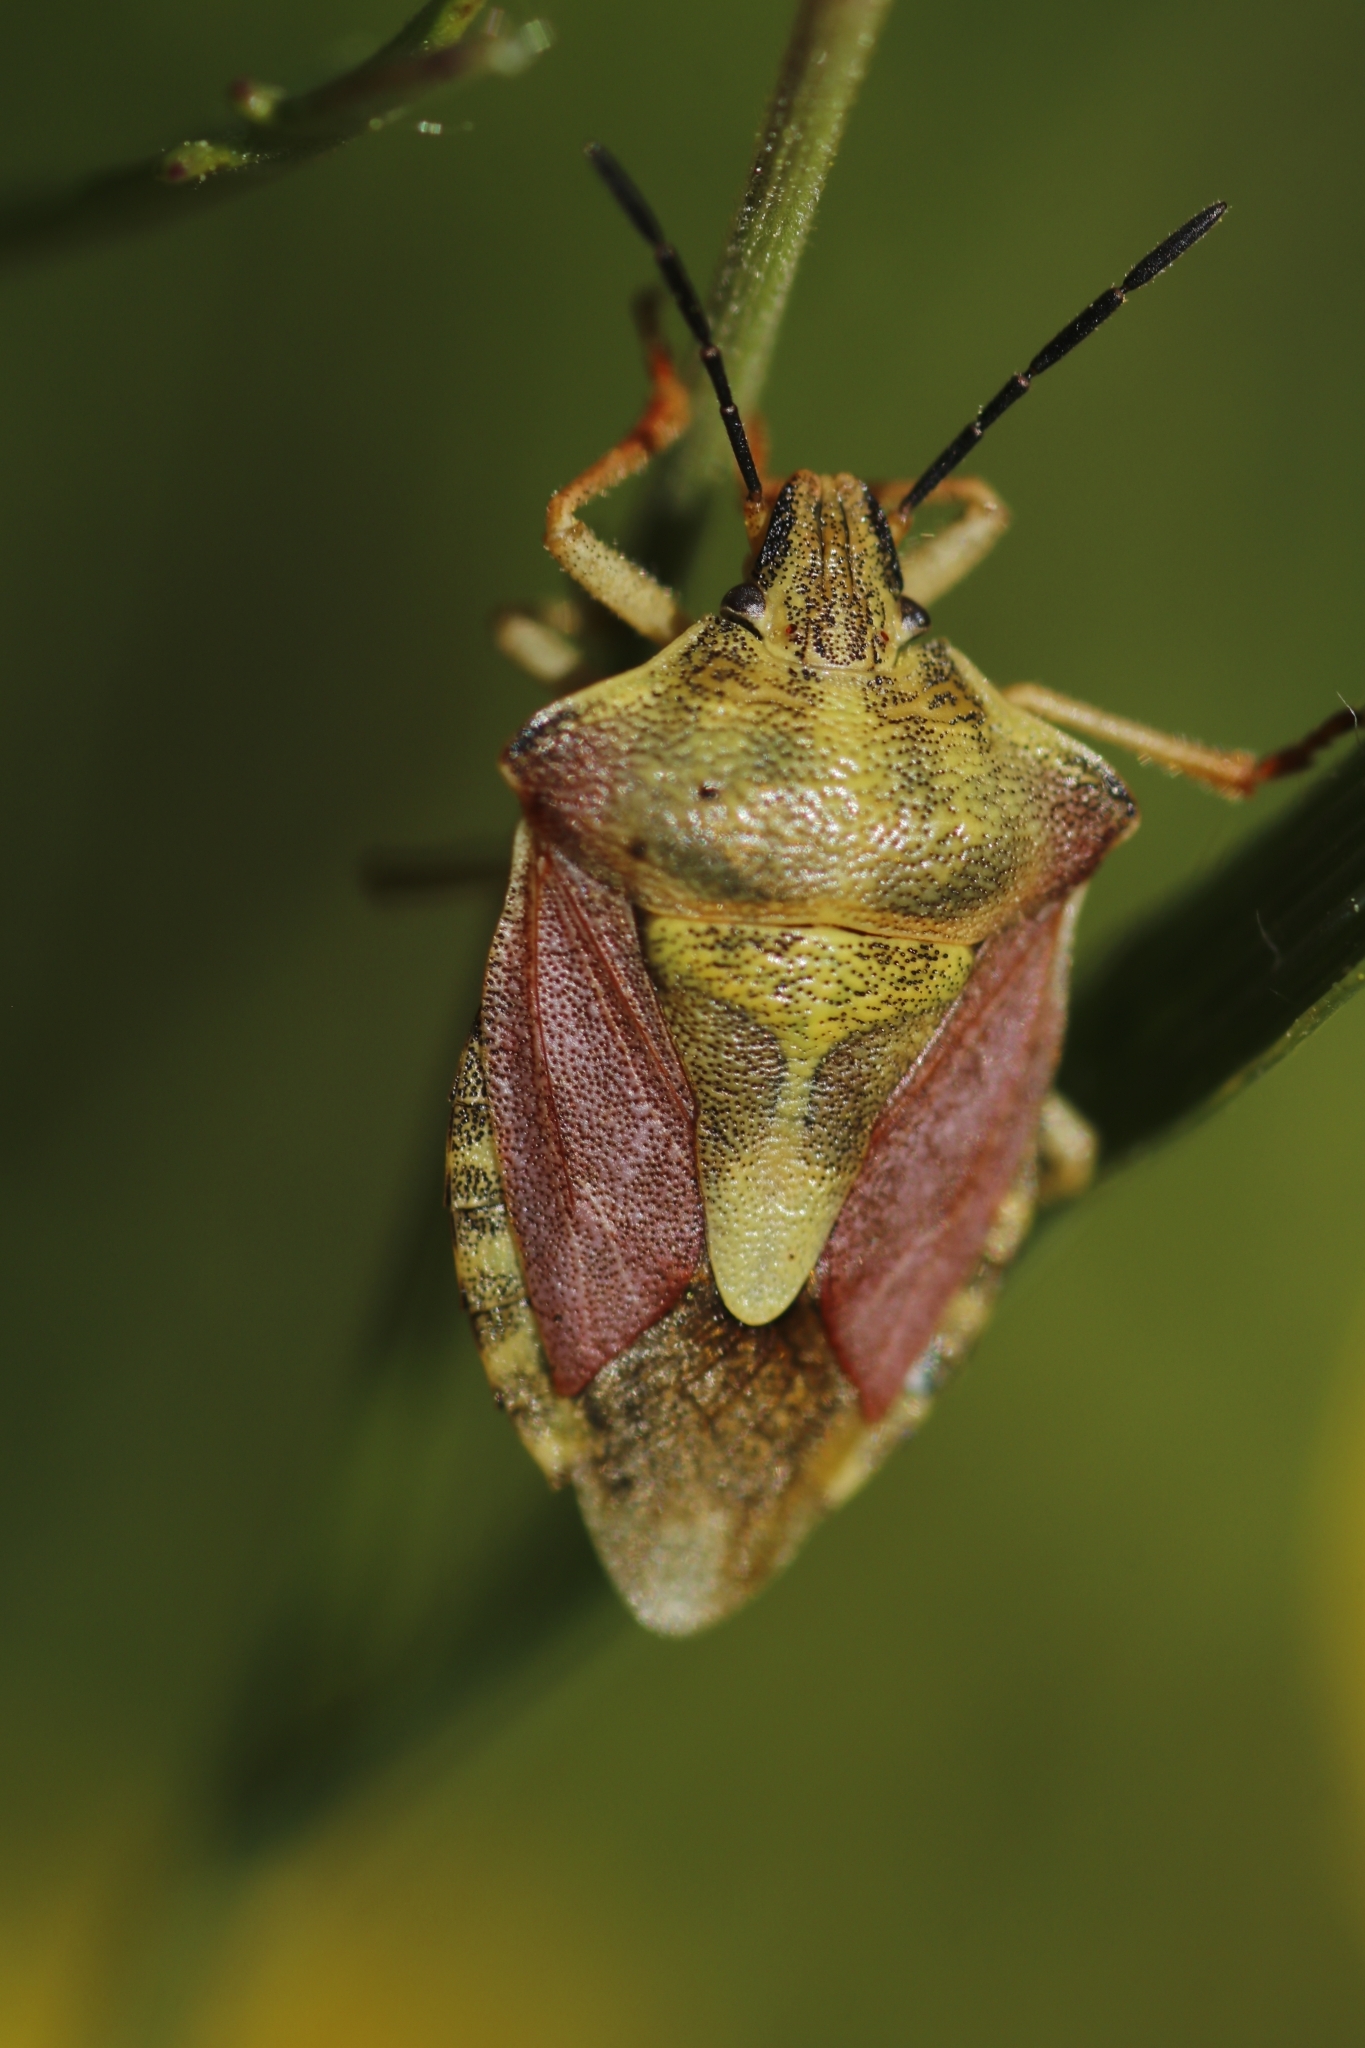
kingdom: Animalia
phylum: Arthropoda
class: Insecta
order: Hemiptera
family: Pentatomidae
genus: Carpocoris
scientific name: Carpocoris purpureipennis
